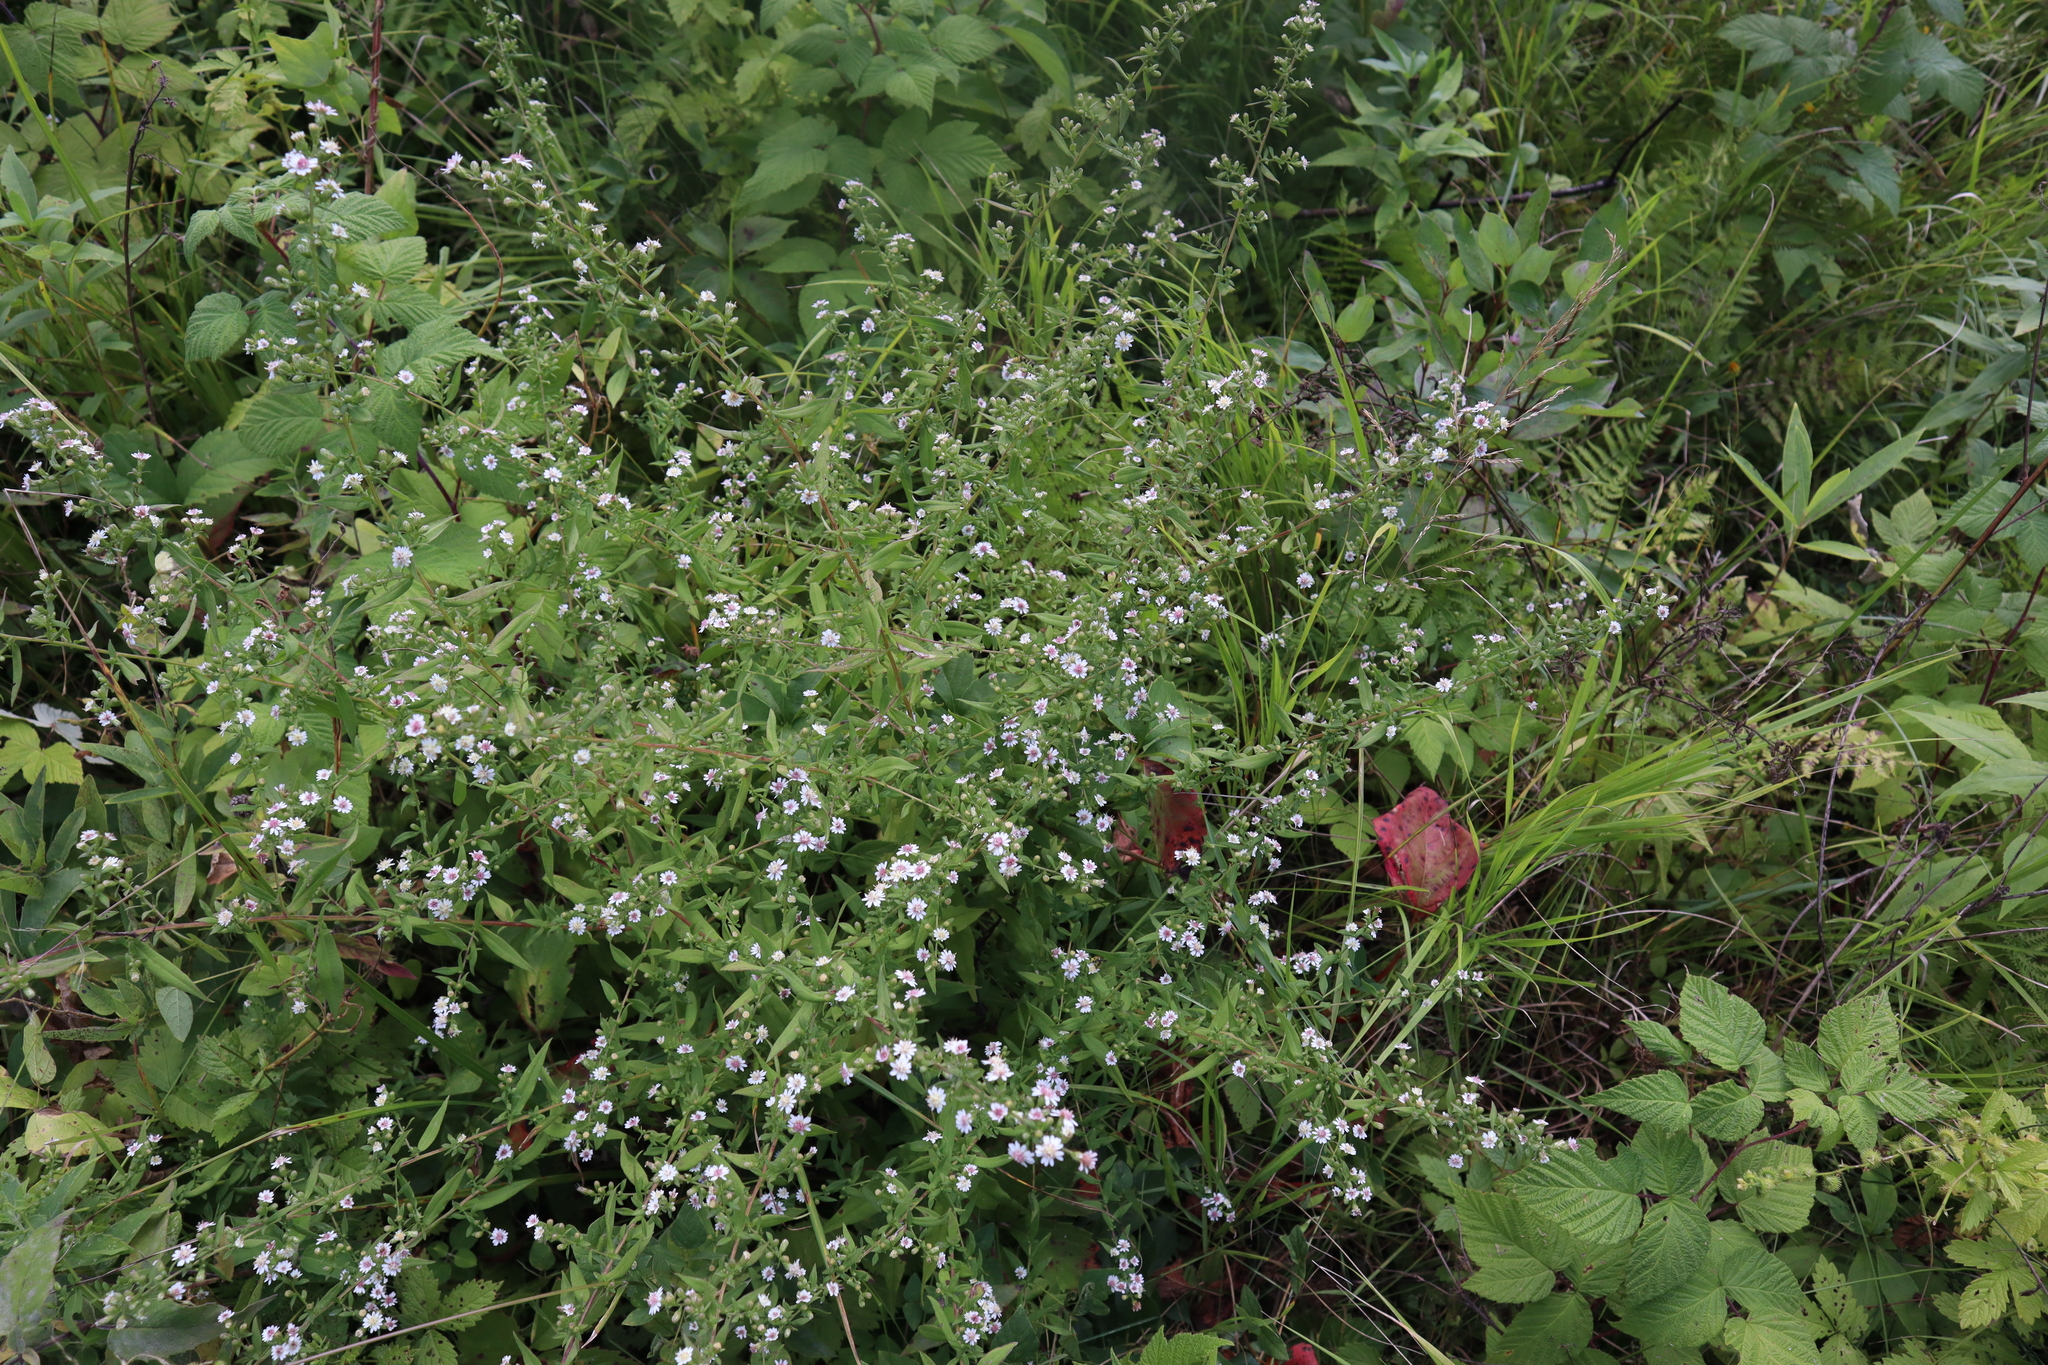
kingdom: Plantae
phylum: Tracheophyta
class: Magnoliopsida
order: Asterales
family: Asteraceae
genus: Symphyotrichum
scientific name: Symphyotrichum lateriflorum
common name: Calico aster
